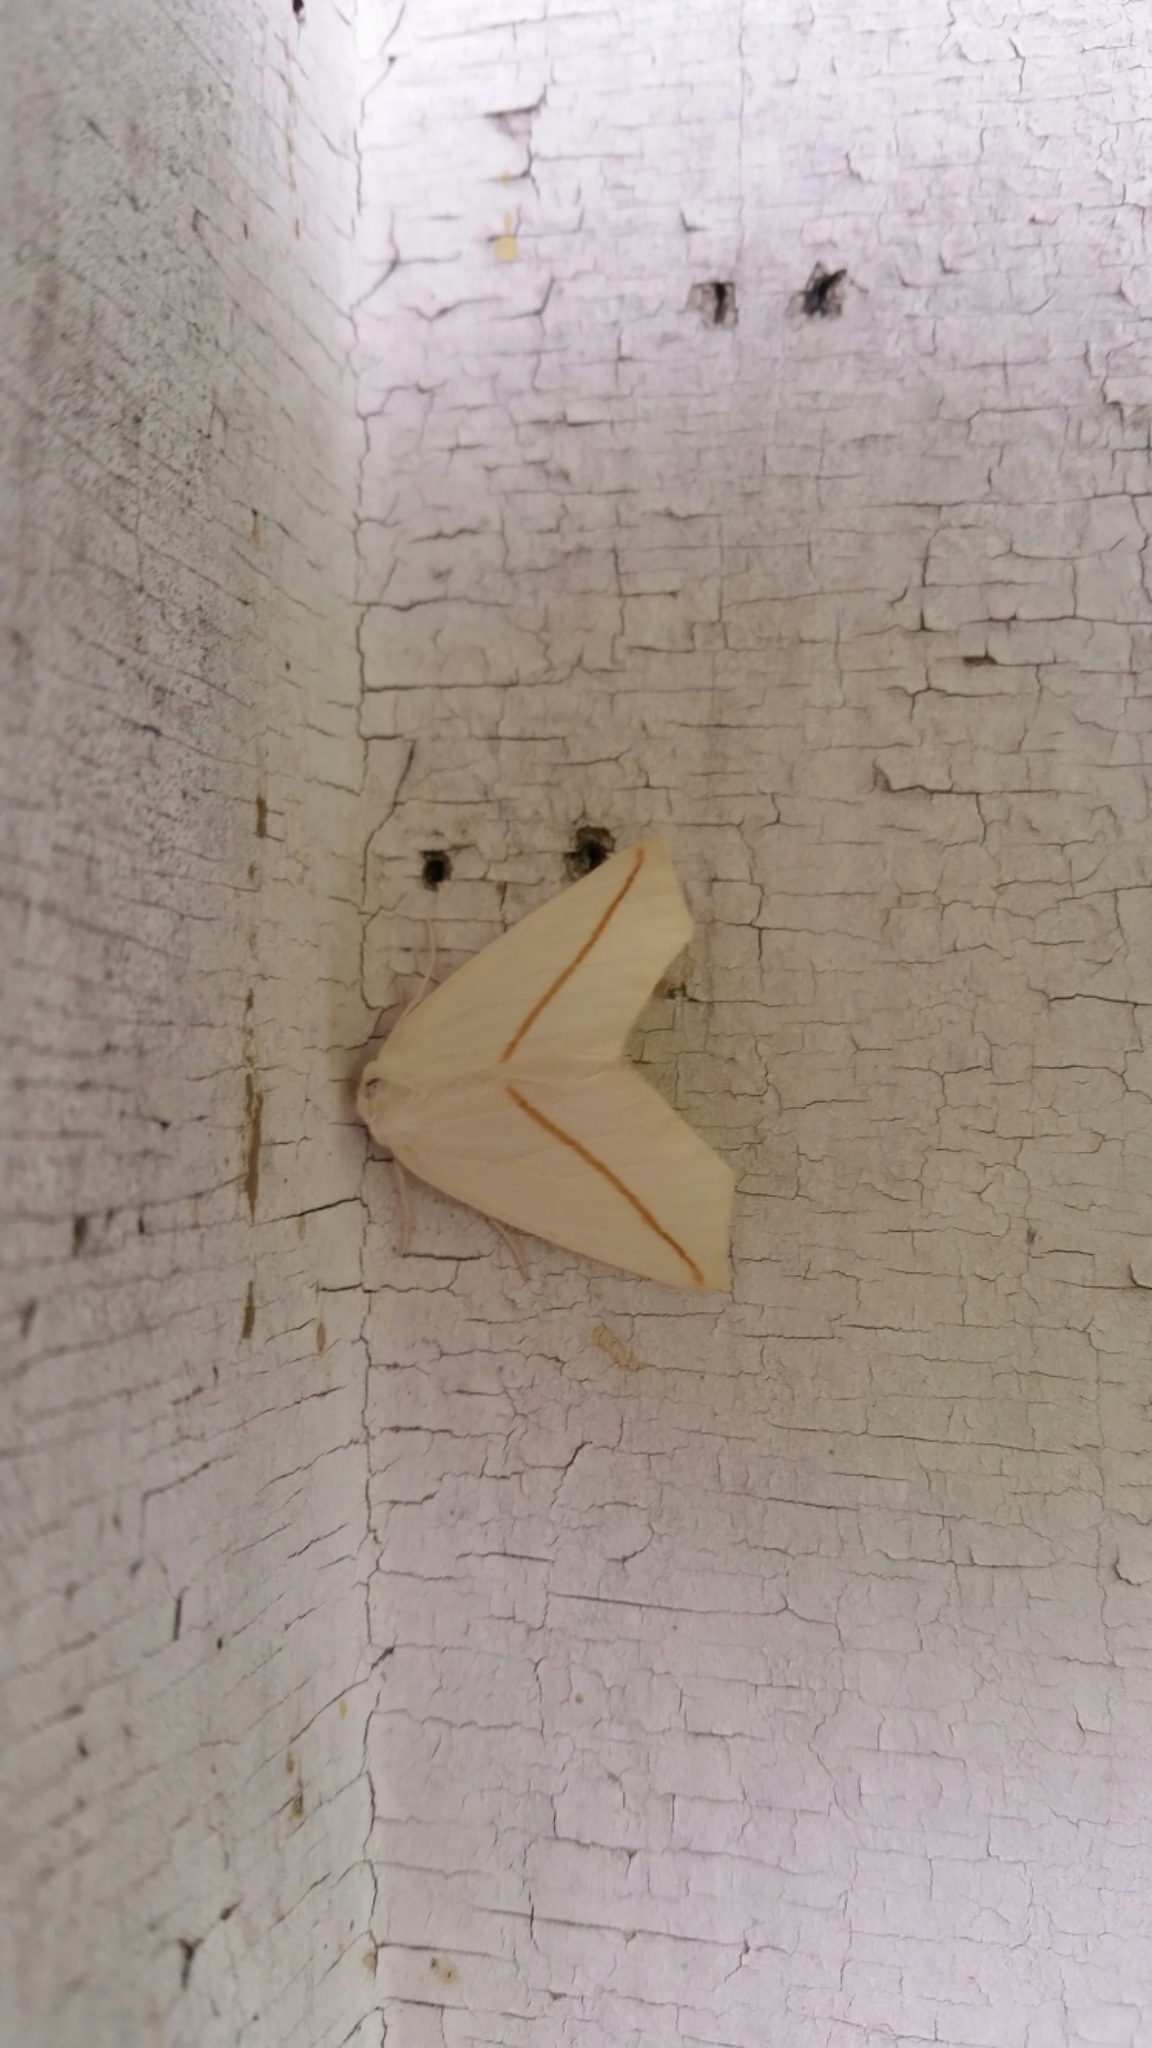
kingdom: Animalia
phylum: Arthropoda
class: Insecta
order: Lepidoptera
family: Geometridae
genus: Tetracis
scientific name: Tetracis cachexiata
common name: White slant-line
